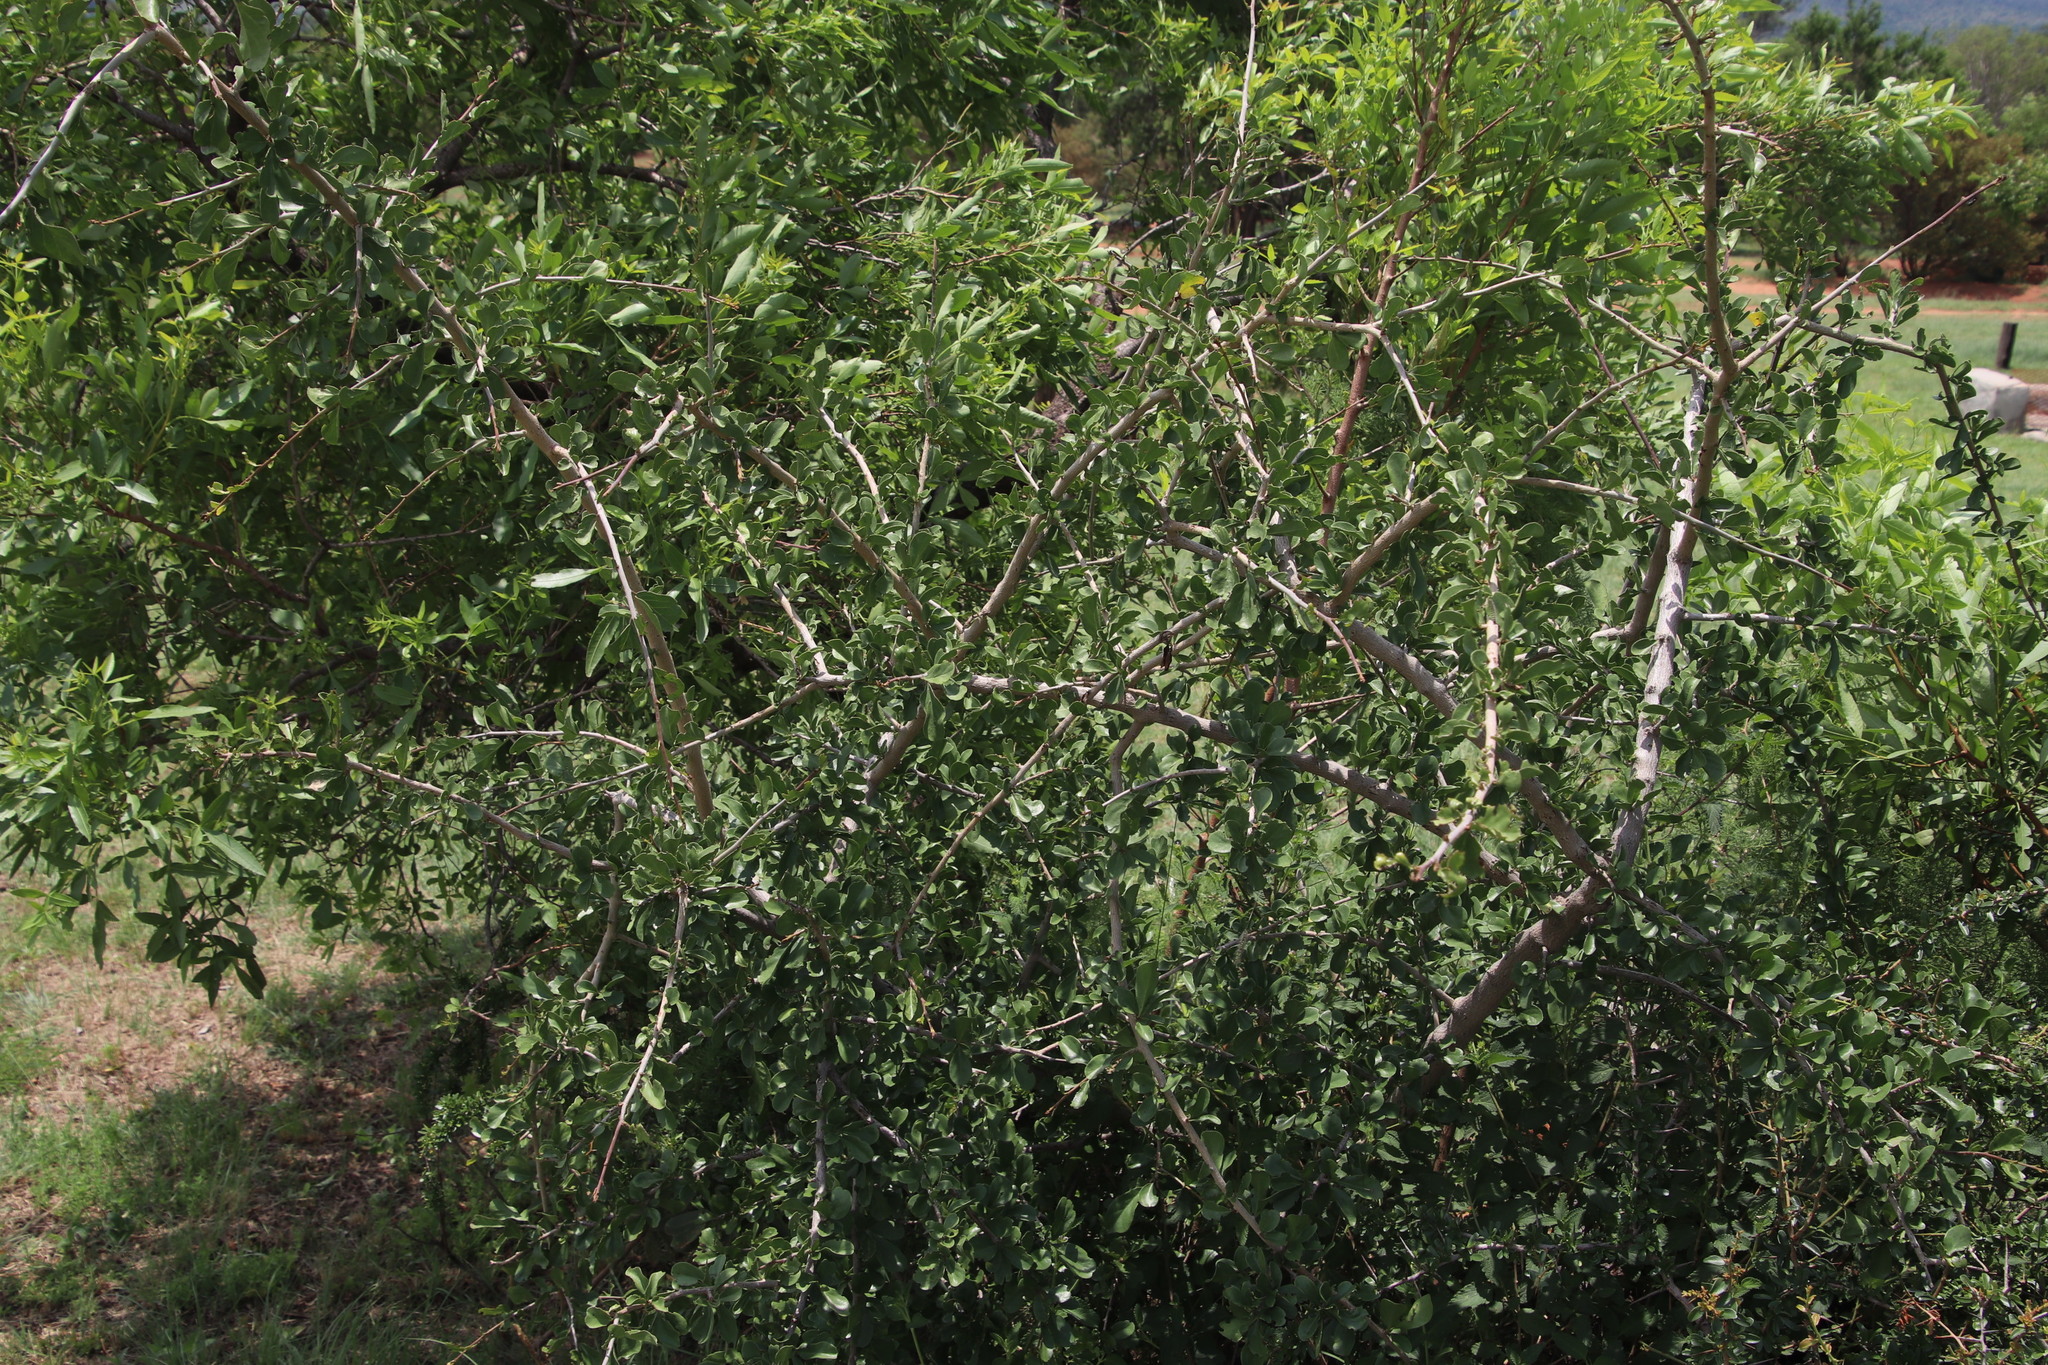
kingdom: Plantae
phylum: Tracheophyta
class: Magnoliopsida
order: Boraginales
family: Ehretiaceae
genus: Ehretia
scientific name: Ehretia rigida
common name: Cape lilac
